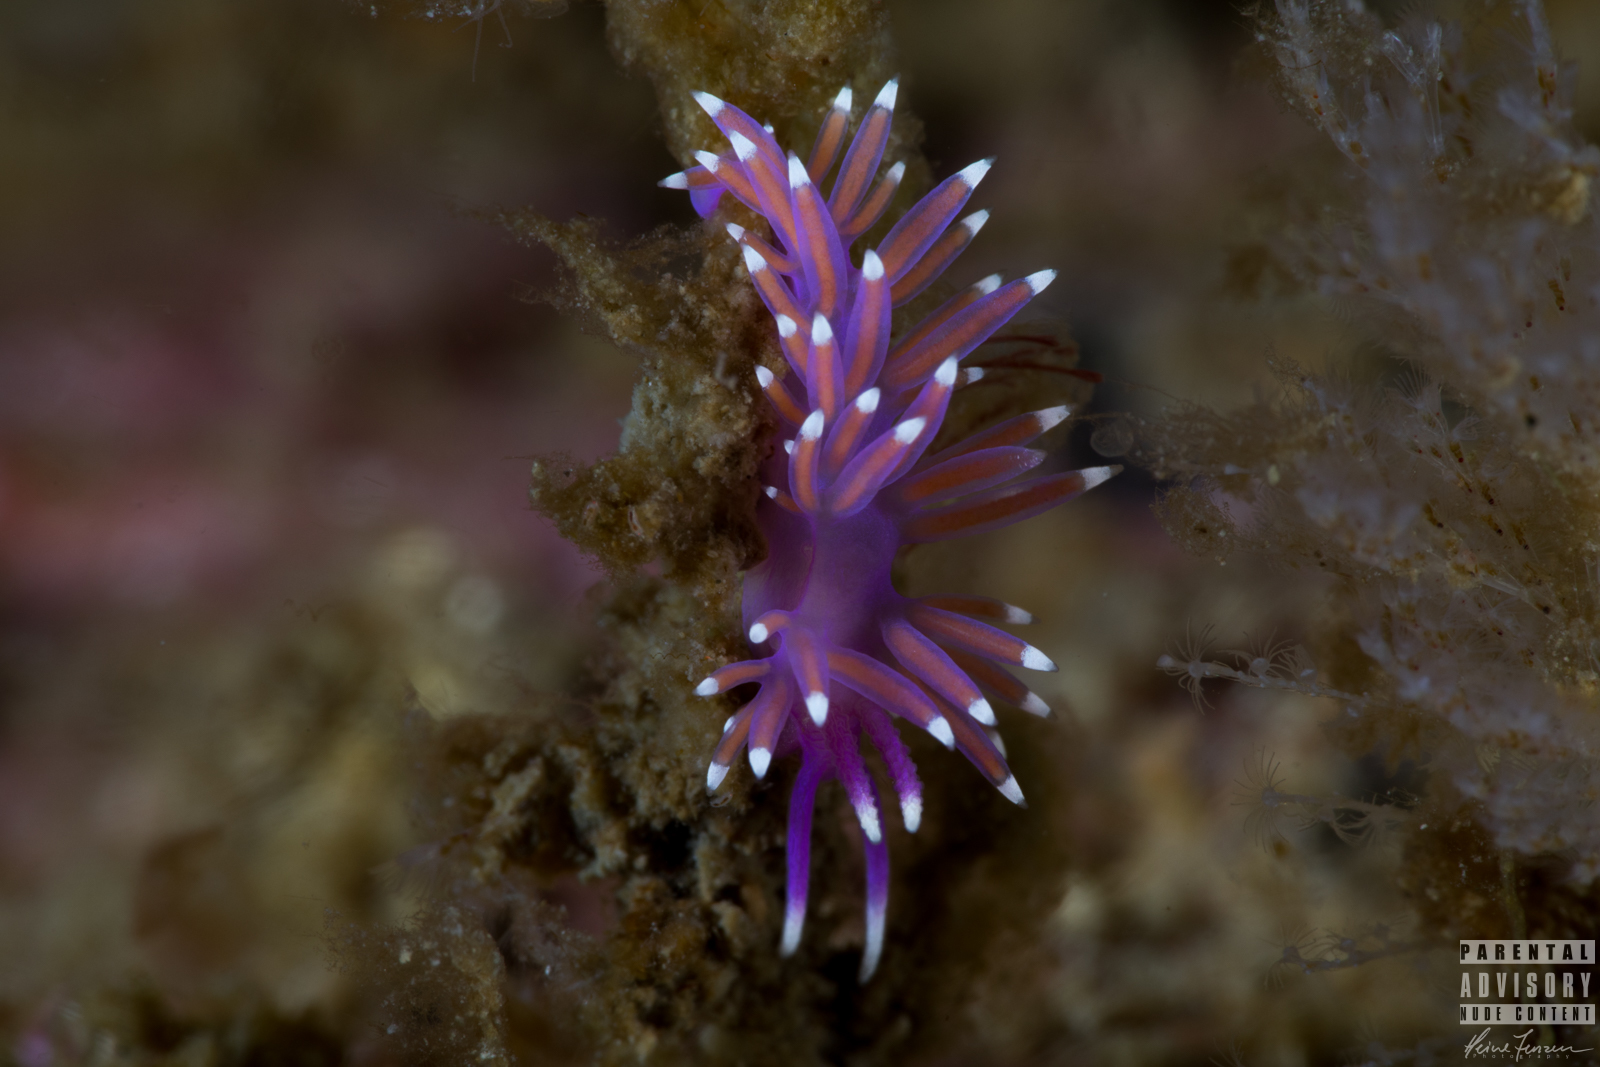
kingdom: Animalia
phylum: Mollusca
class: Gastropoda
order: Nudibranchia
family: Flabellinidae
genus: Edmundsella
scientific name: Edmundsella pedata
